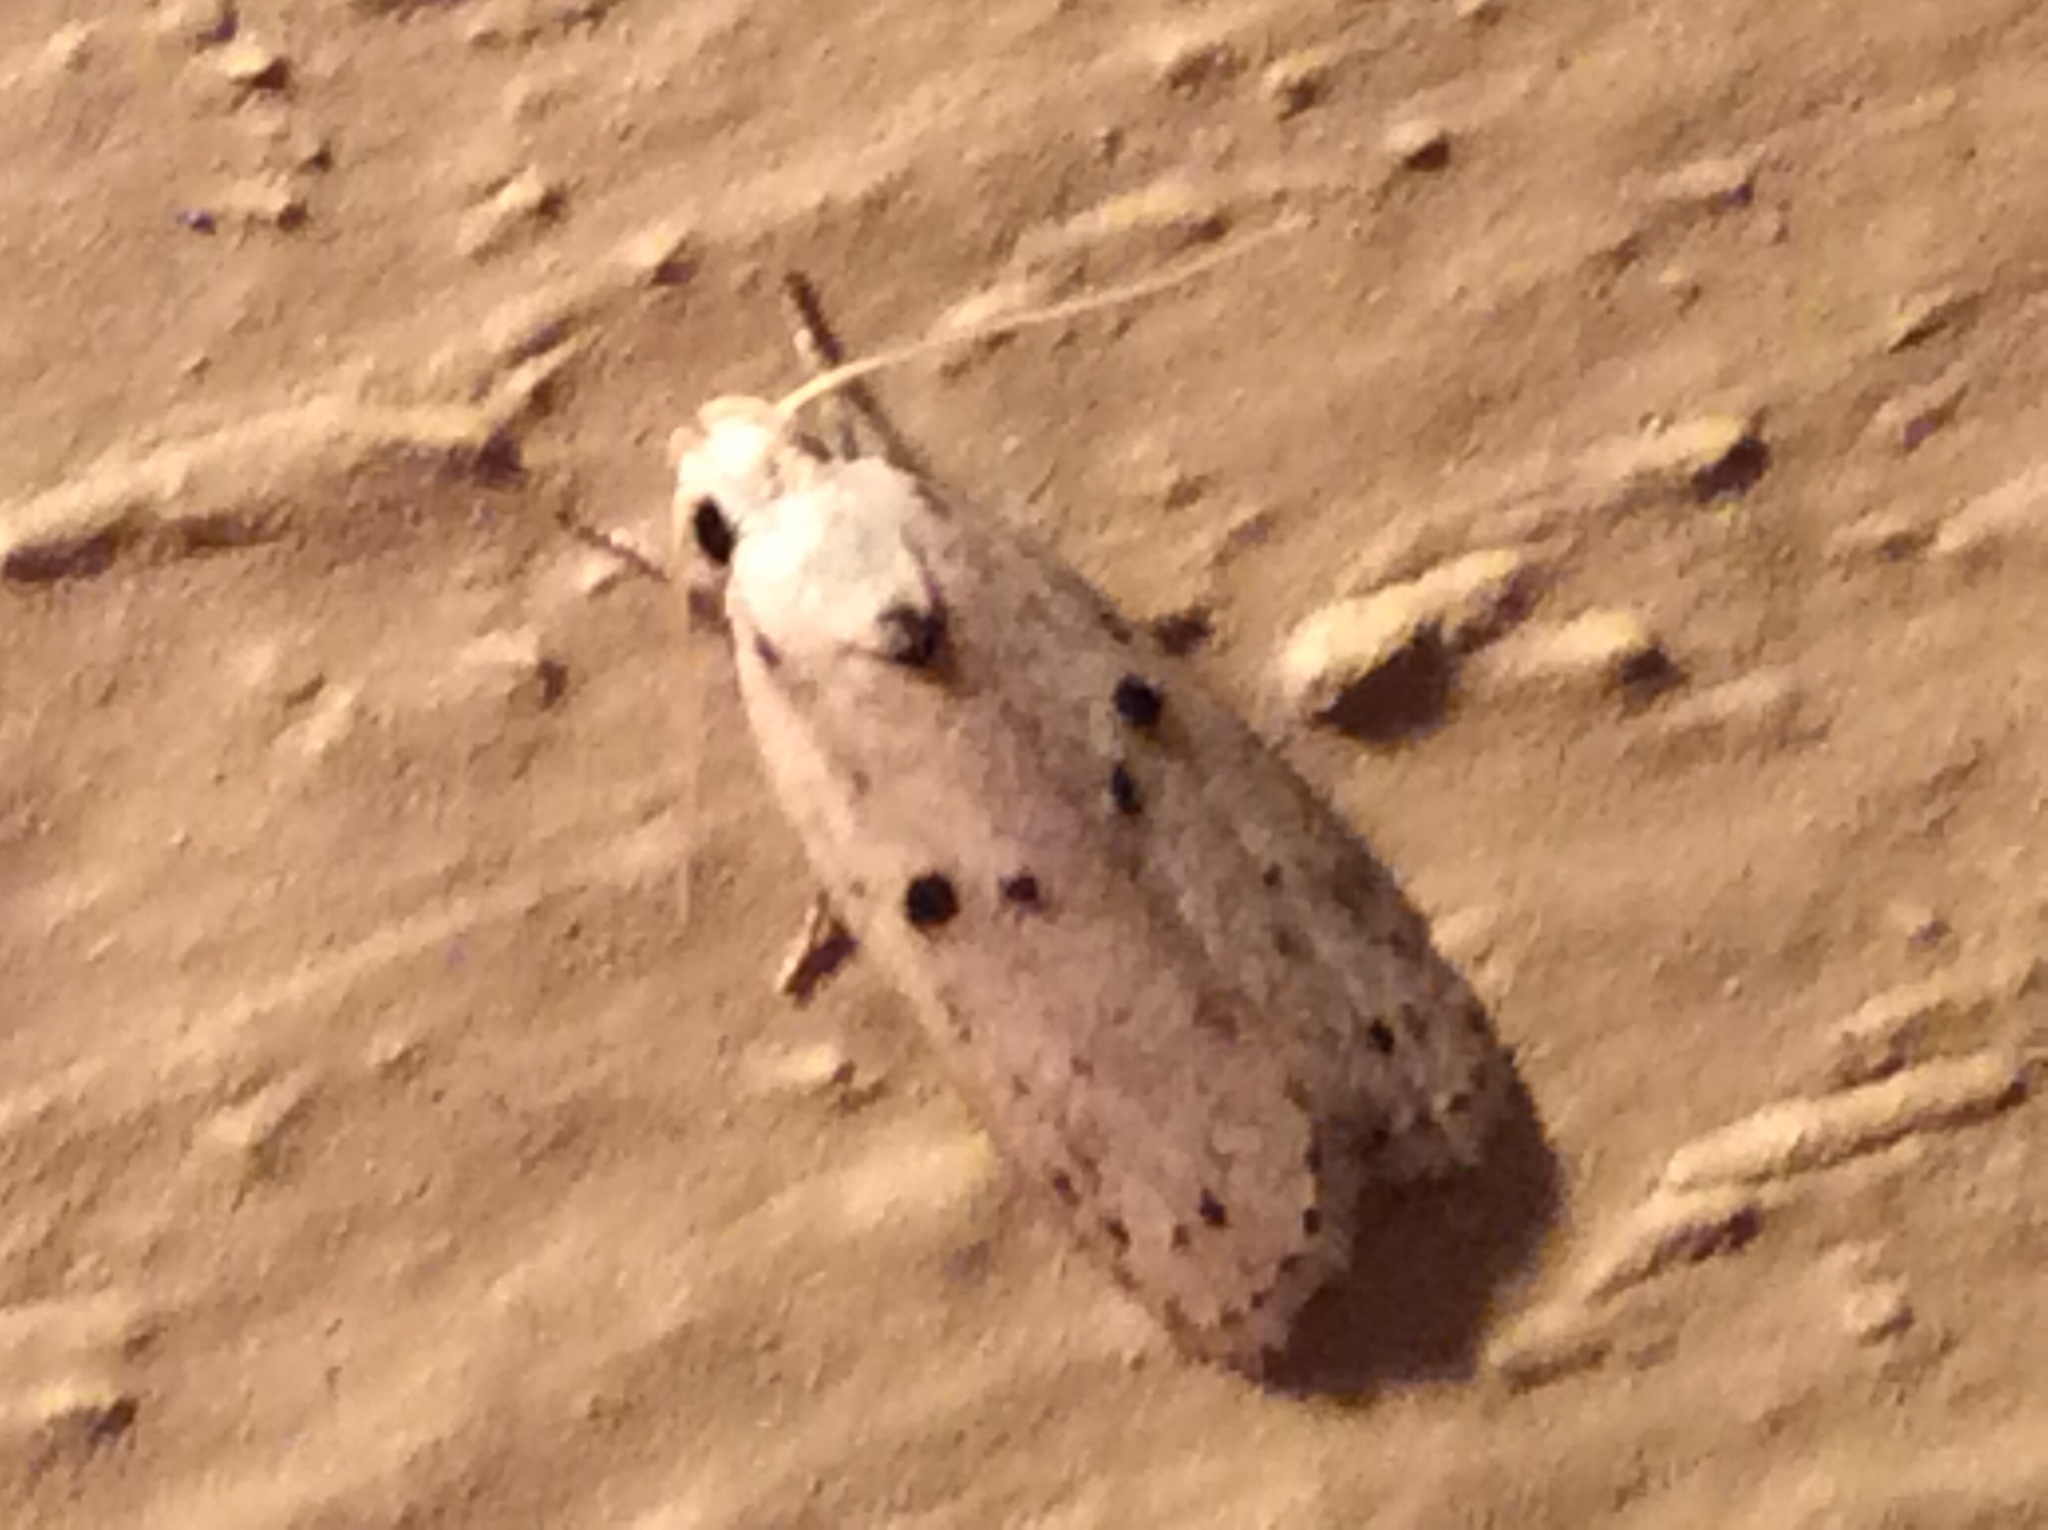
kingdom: Animalia
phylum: Arthropoda
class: Insecta
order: Lepidoptera
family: Peleopodidae
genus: Scythropiodes
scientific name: Scythropiodes issikii
